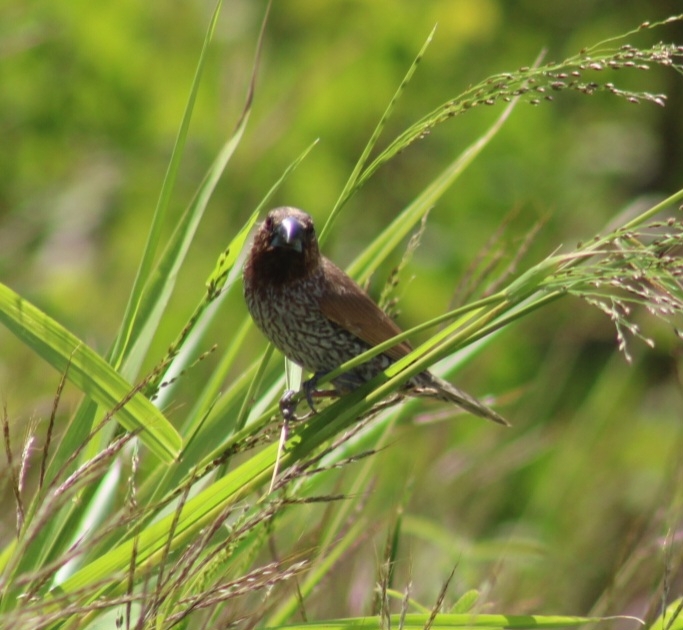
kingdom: Animalia
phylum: Chordata
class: Aves
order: Passeriformes
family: Estrildidae
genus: Lonchura
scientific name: Lonchura punctulata
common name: Scaly-breasted munia
